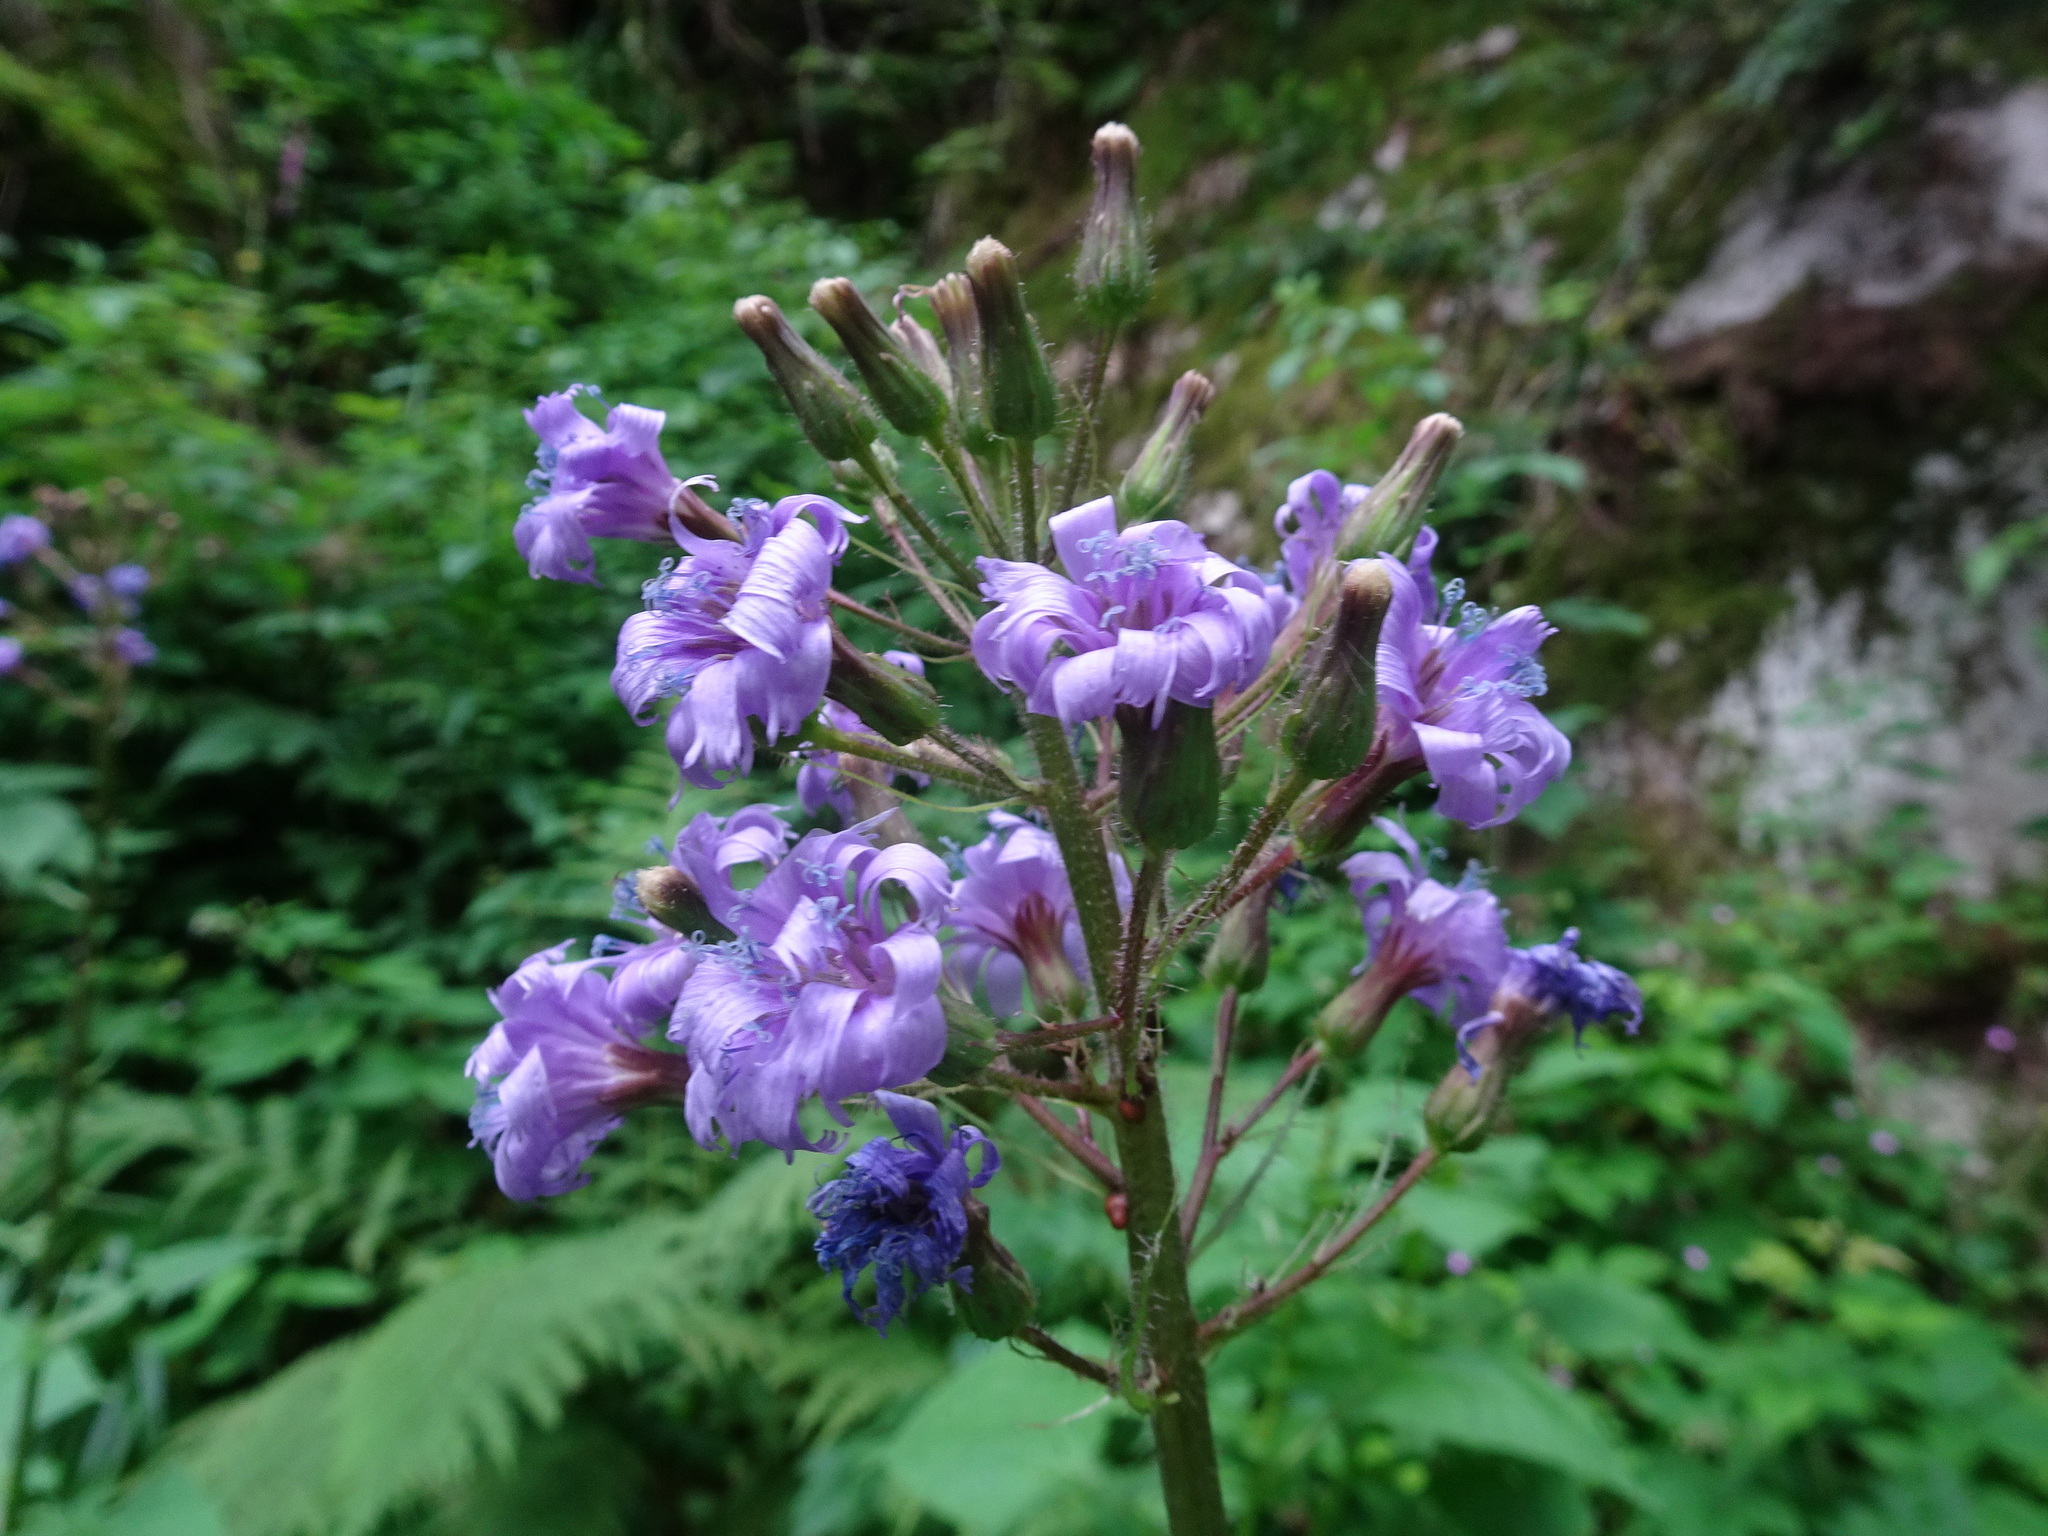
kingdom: Plantae
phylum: Tracheophyta
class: Magnoliopsida
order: Asterales
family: Asteraceae
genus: Cicerbita
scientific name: Cicerbita alpina
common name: Alpine blue-sow-thistle
